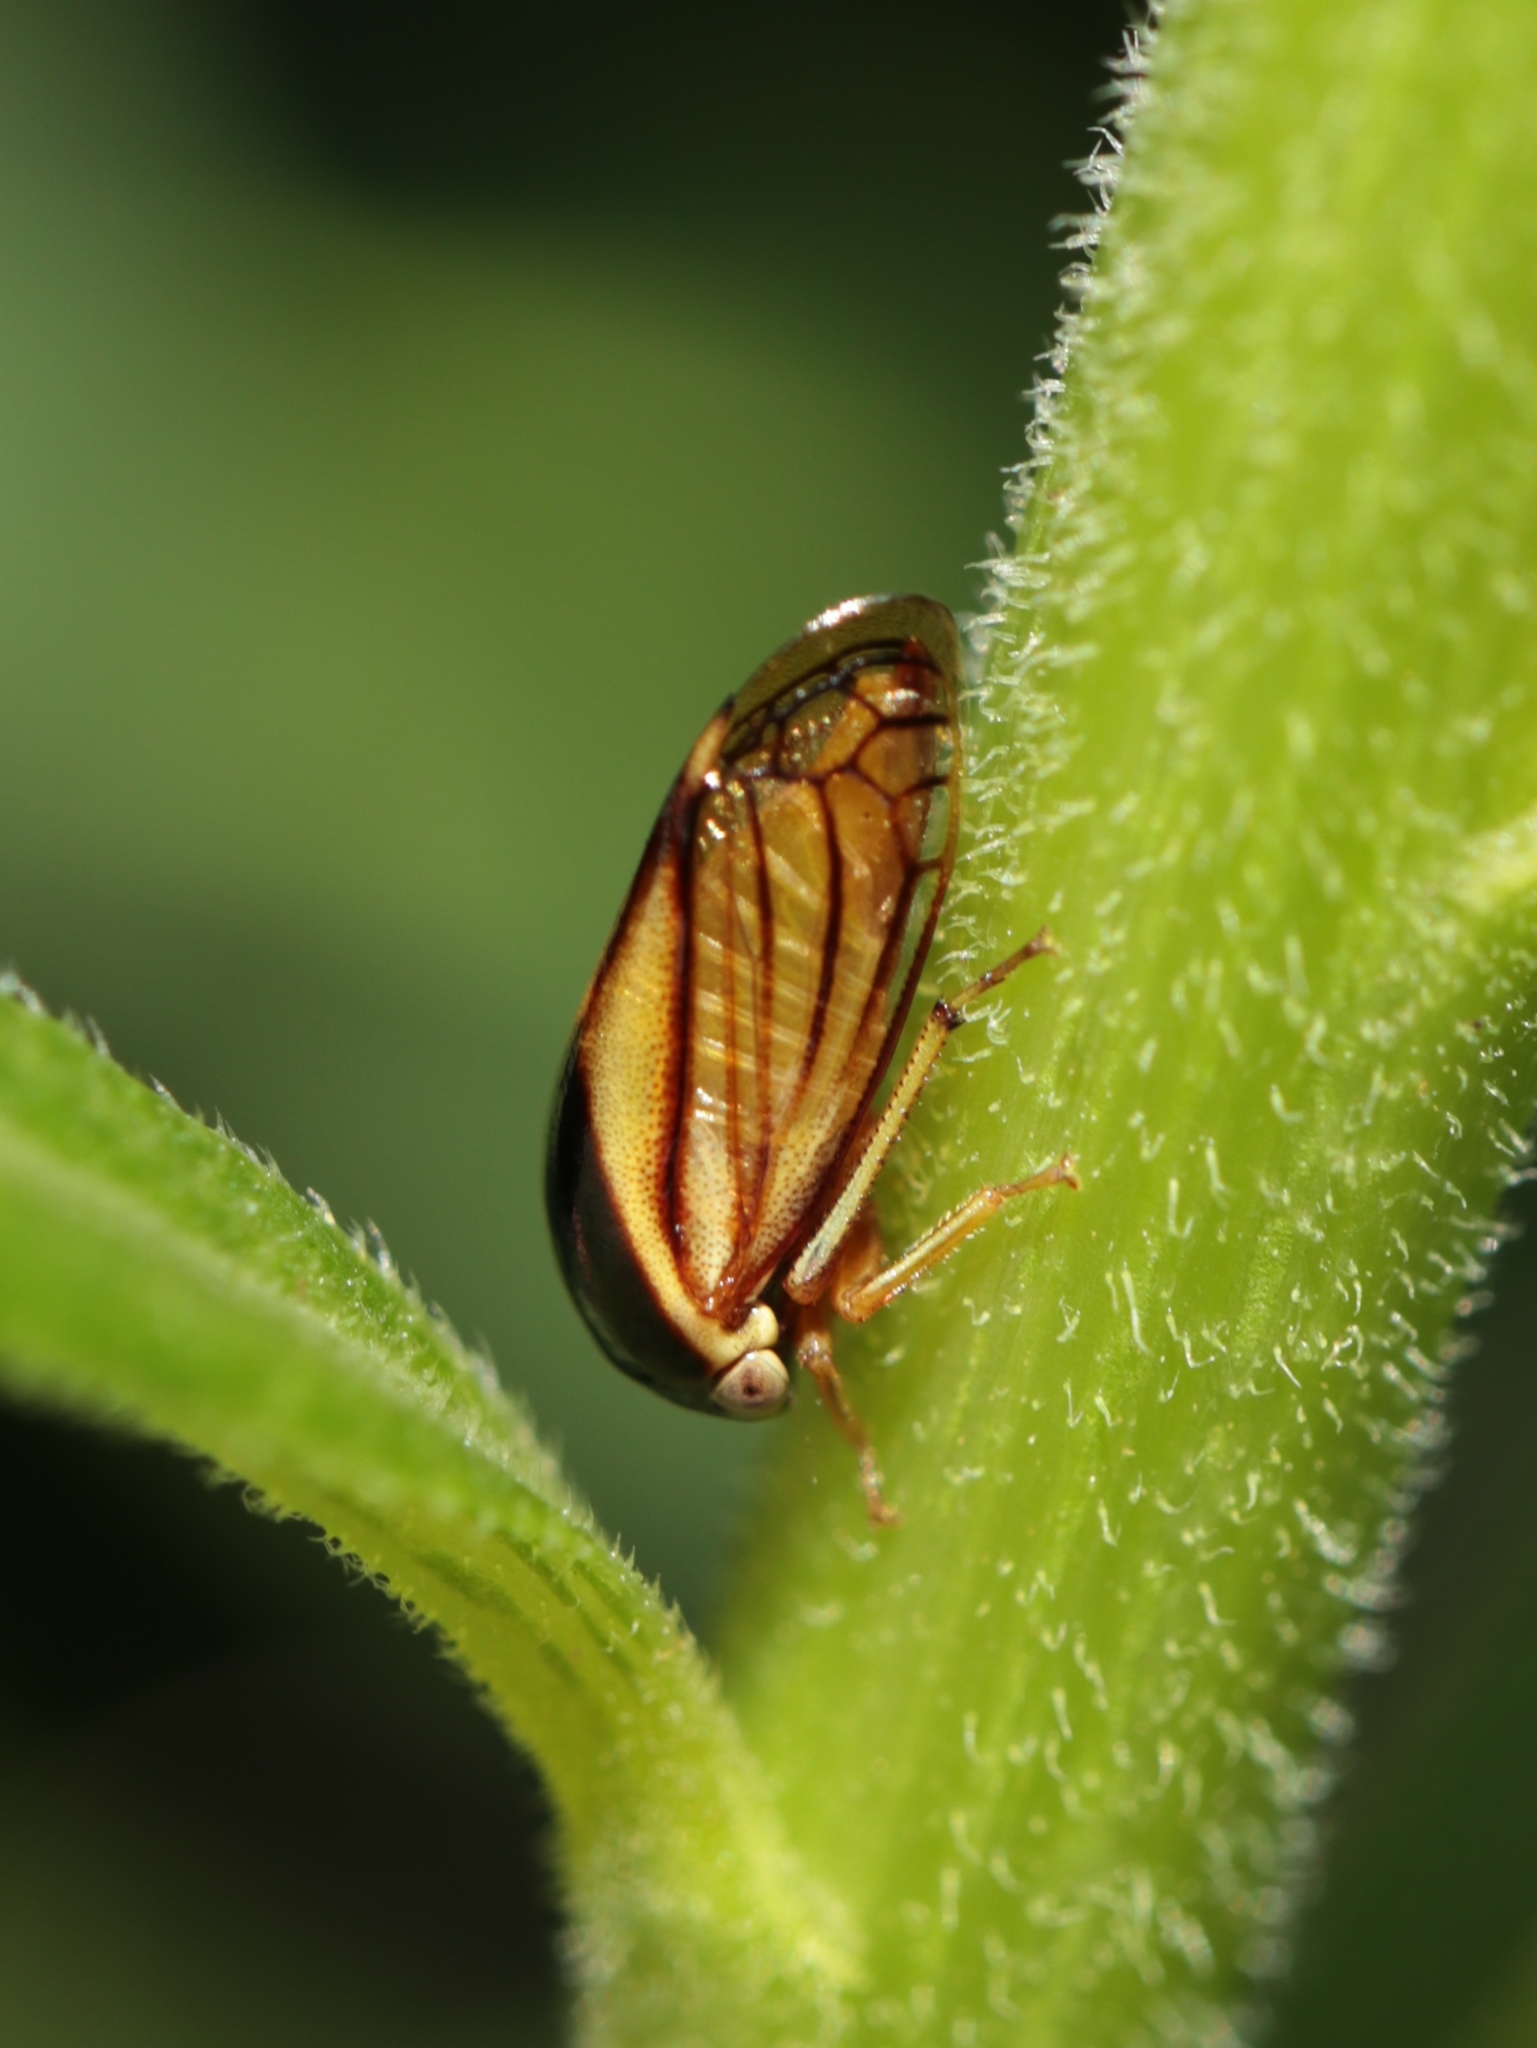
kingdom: Animalia
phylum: Arthropoda
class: Insecta
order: Hemiptera
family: Membracidae
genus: Acutalis
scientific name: Acutalis tartarea
